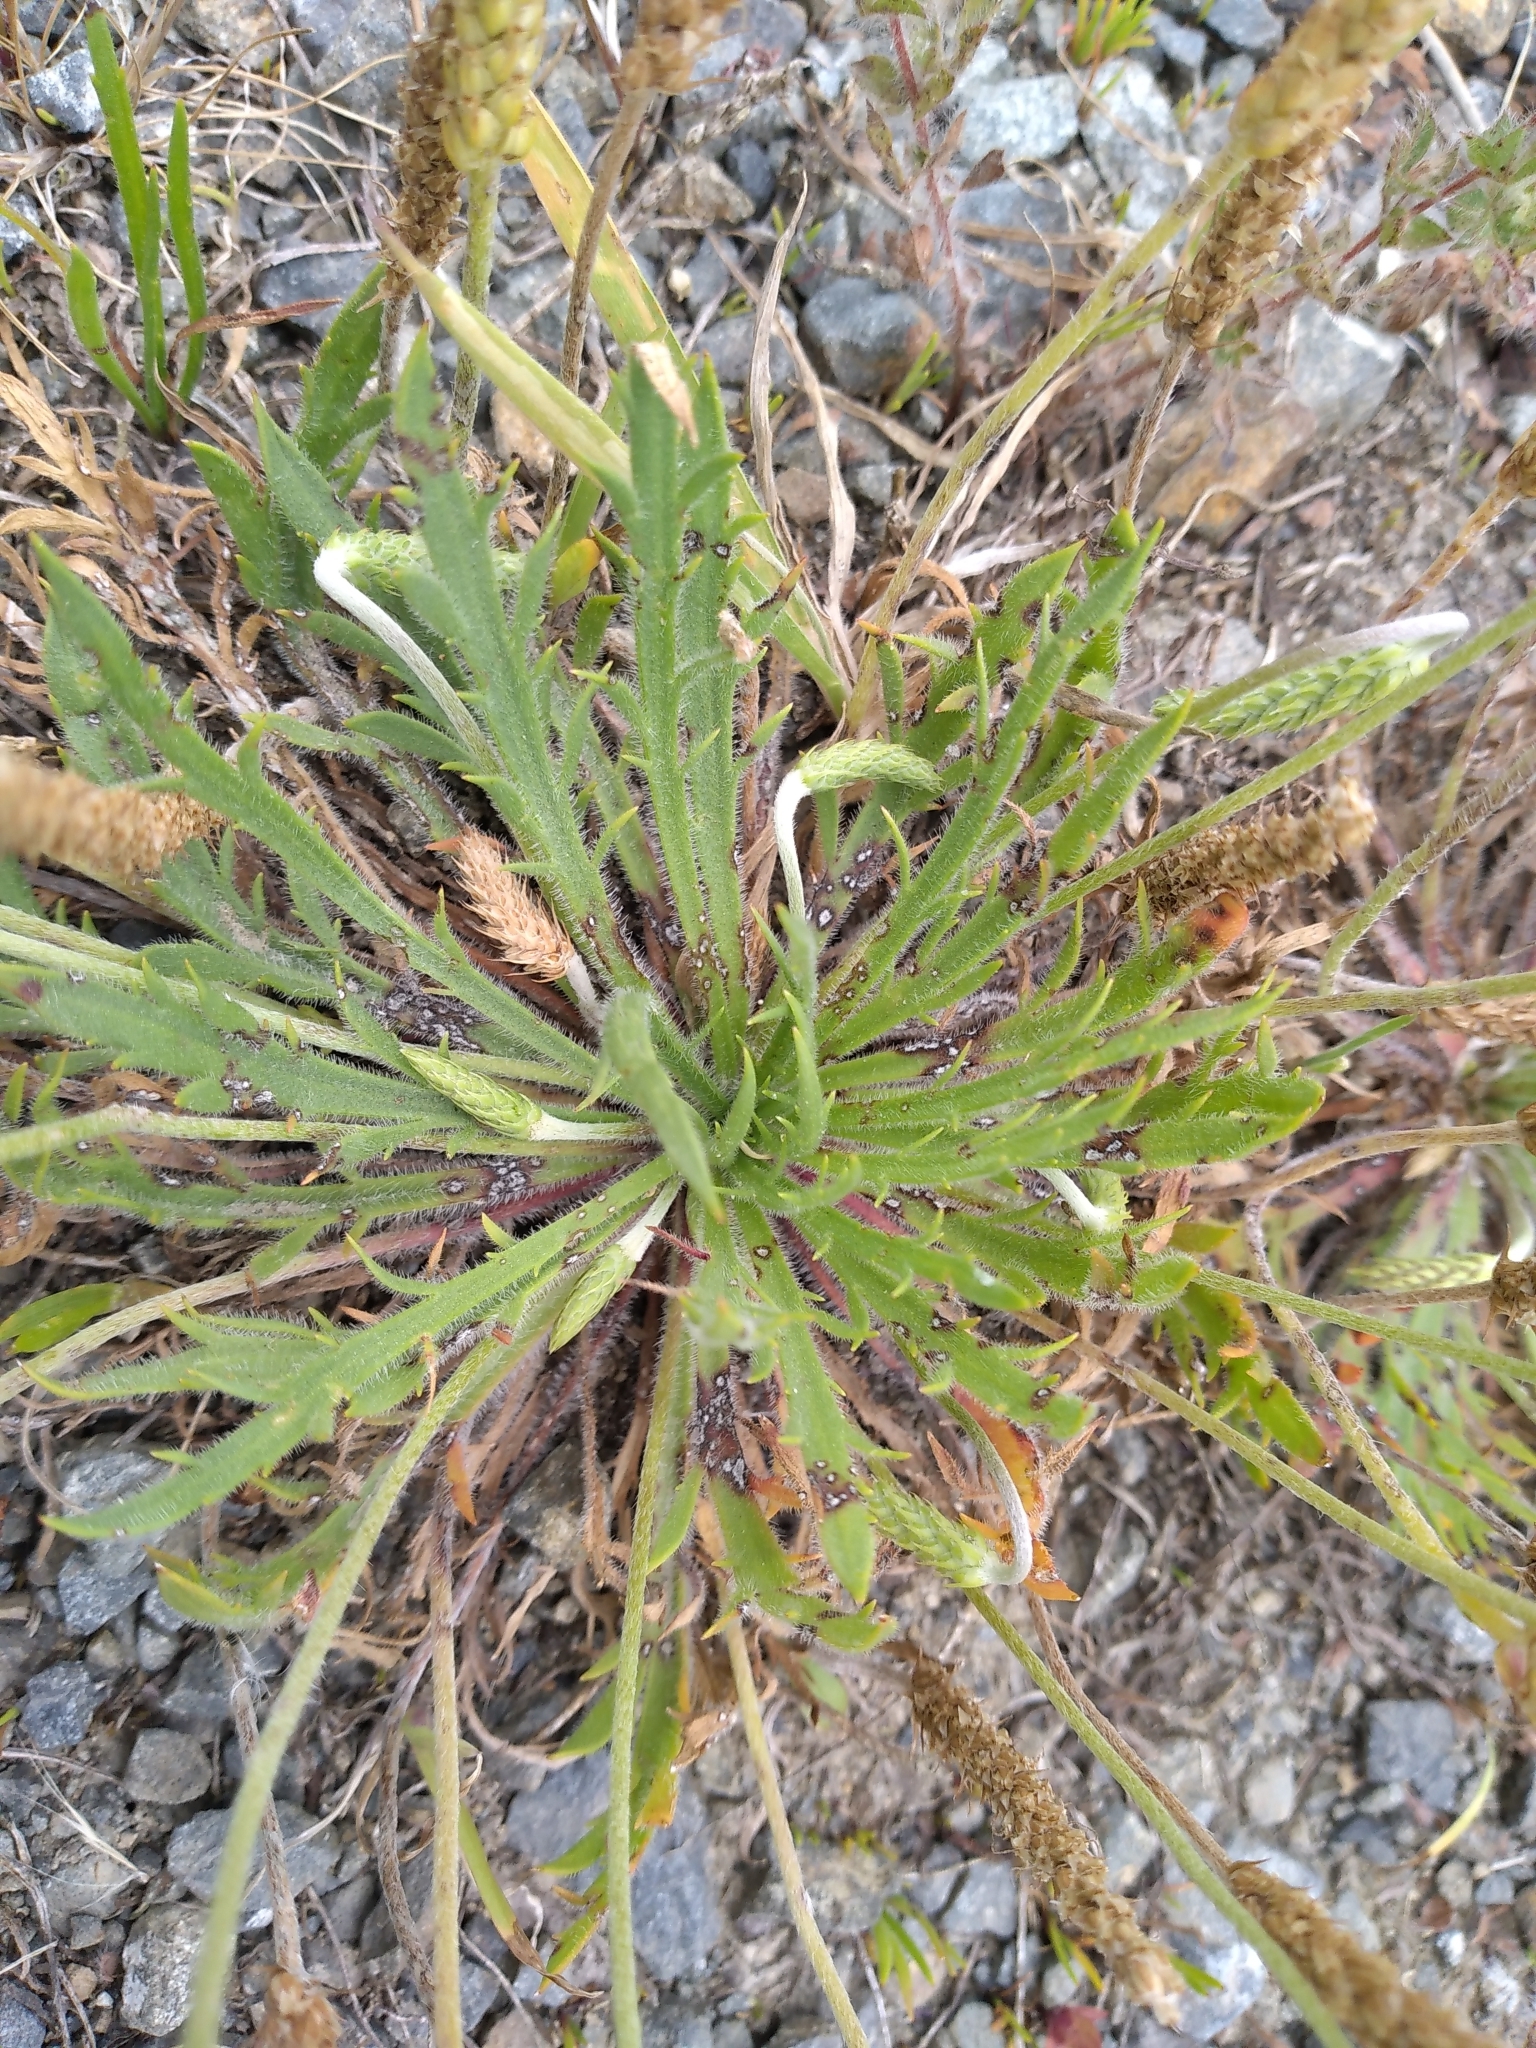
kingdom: Plantae
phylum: Tracheophyta
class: Magnoliopsida
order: Lamiales
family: Plantaginaceae
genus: Plantago
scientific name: Plantago coronopus
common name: Buck's-horn plantain
